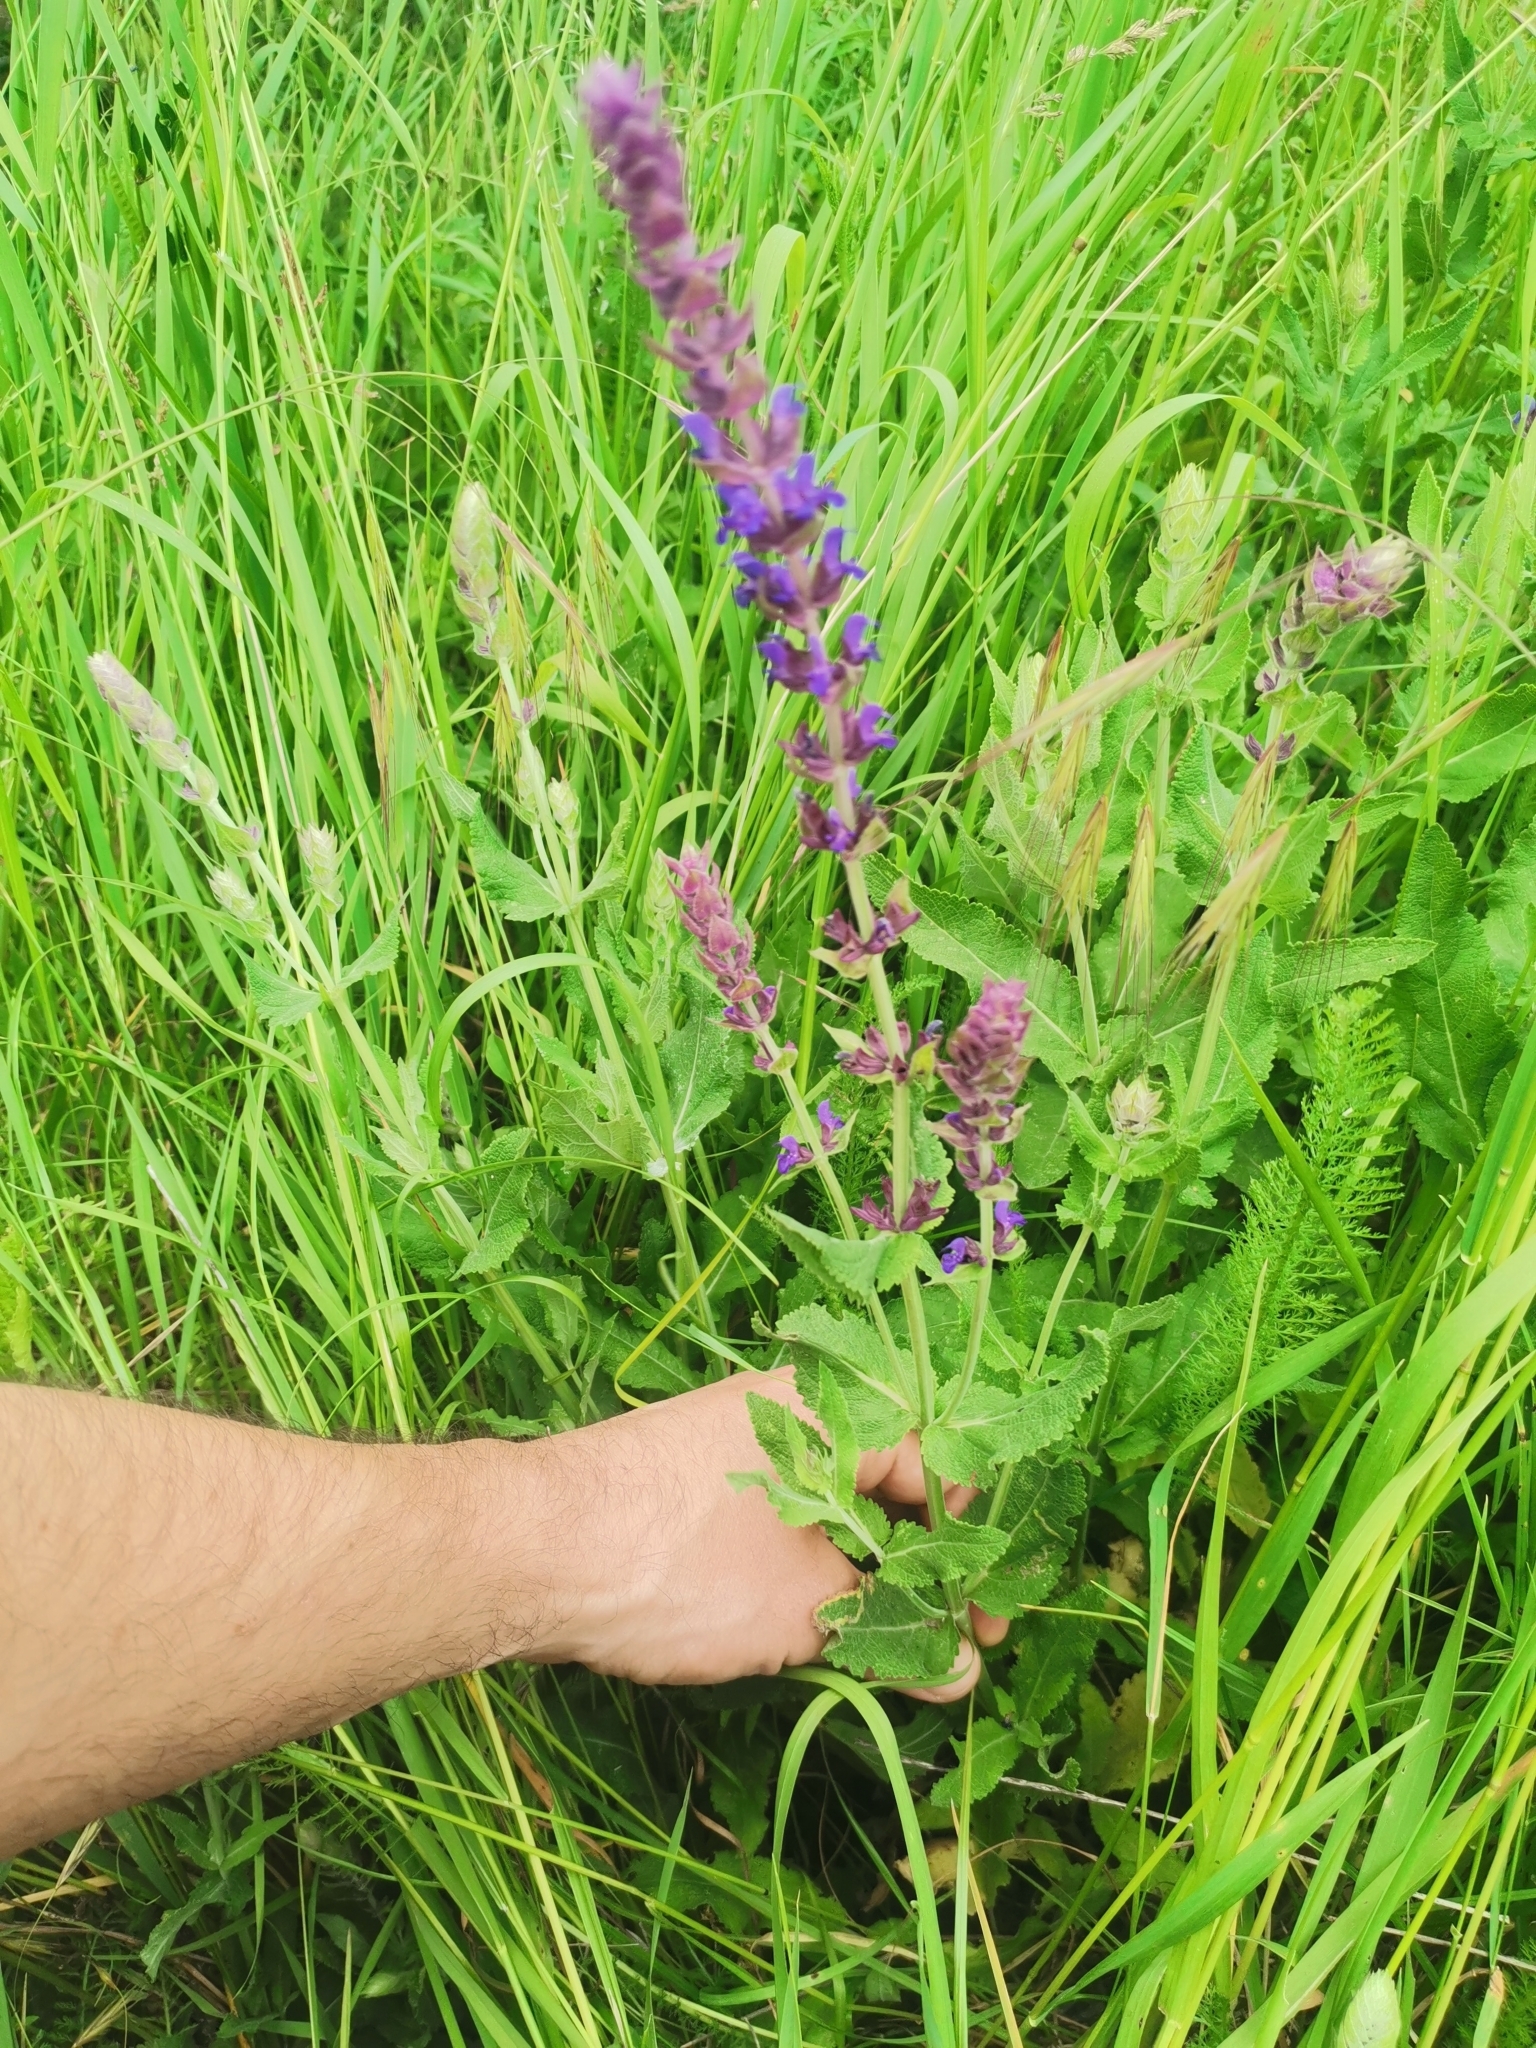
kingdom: Plantae
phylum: Tracheophyta
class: Magnoliopsida
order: Lamiales
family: Lamiaceae
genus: Salvia
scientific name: Salvia nemorosa
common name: Balkan clary
